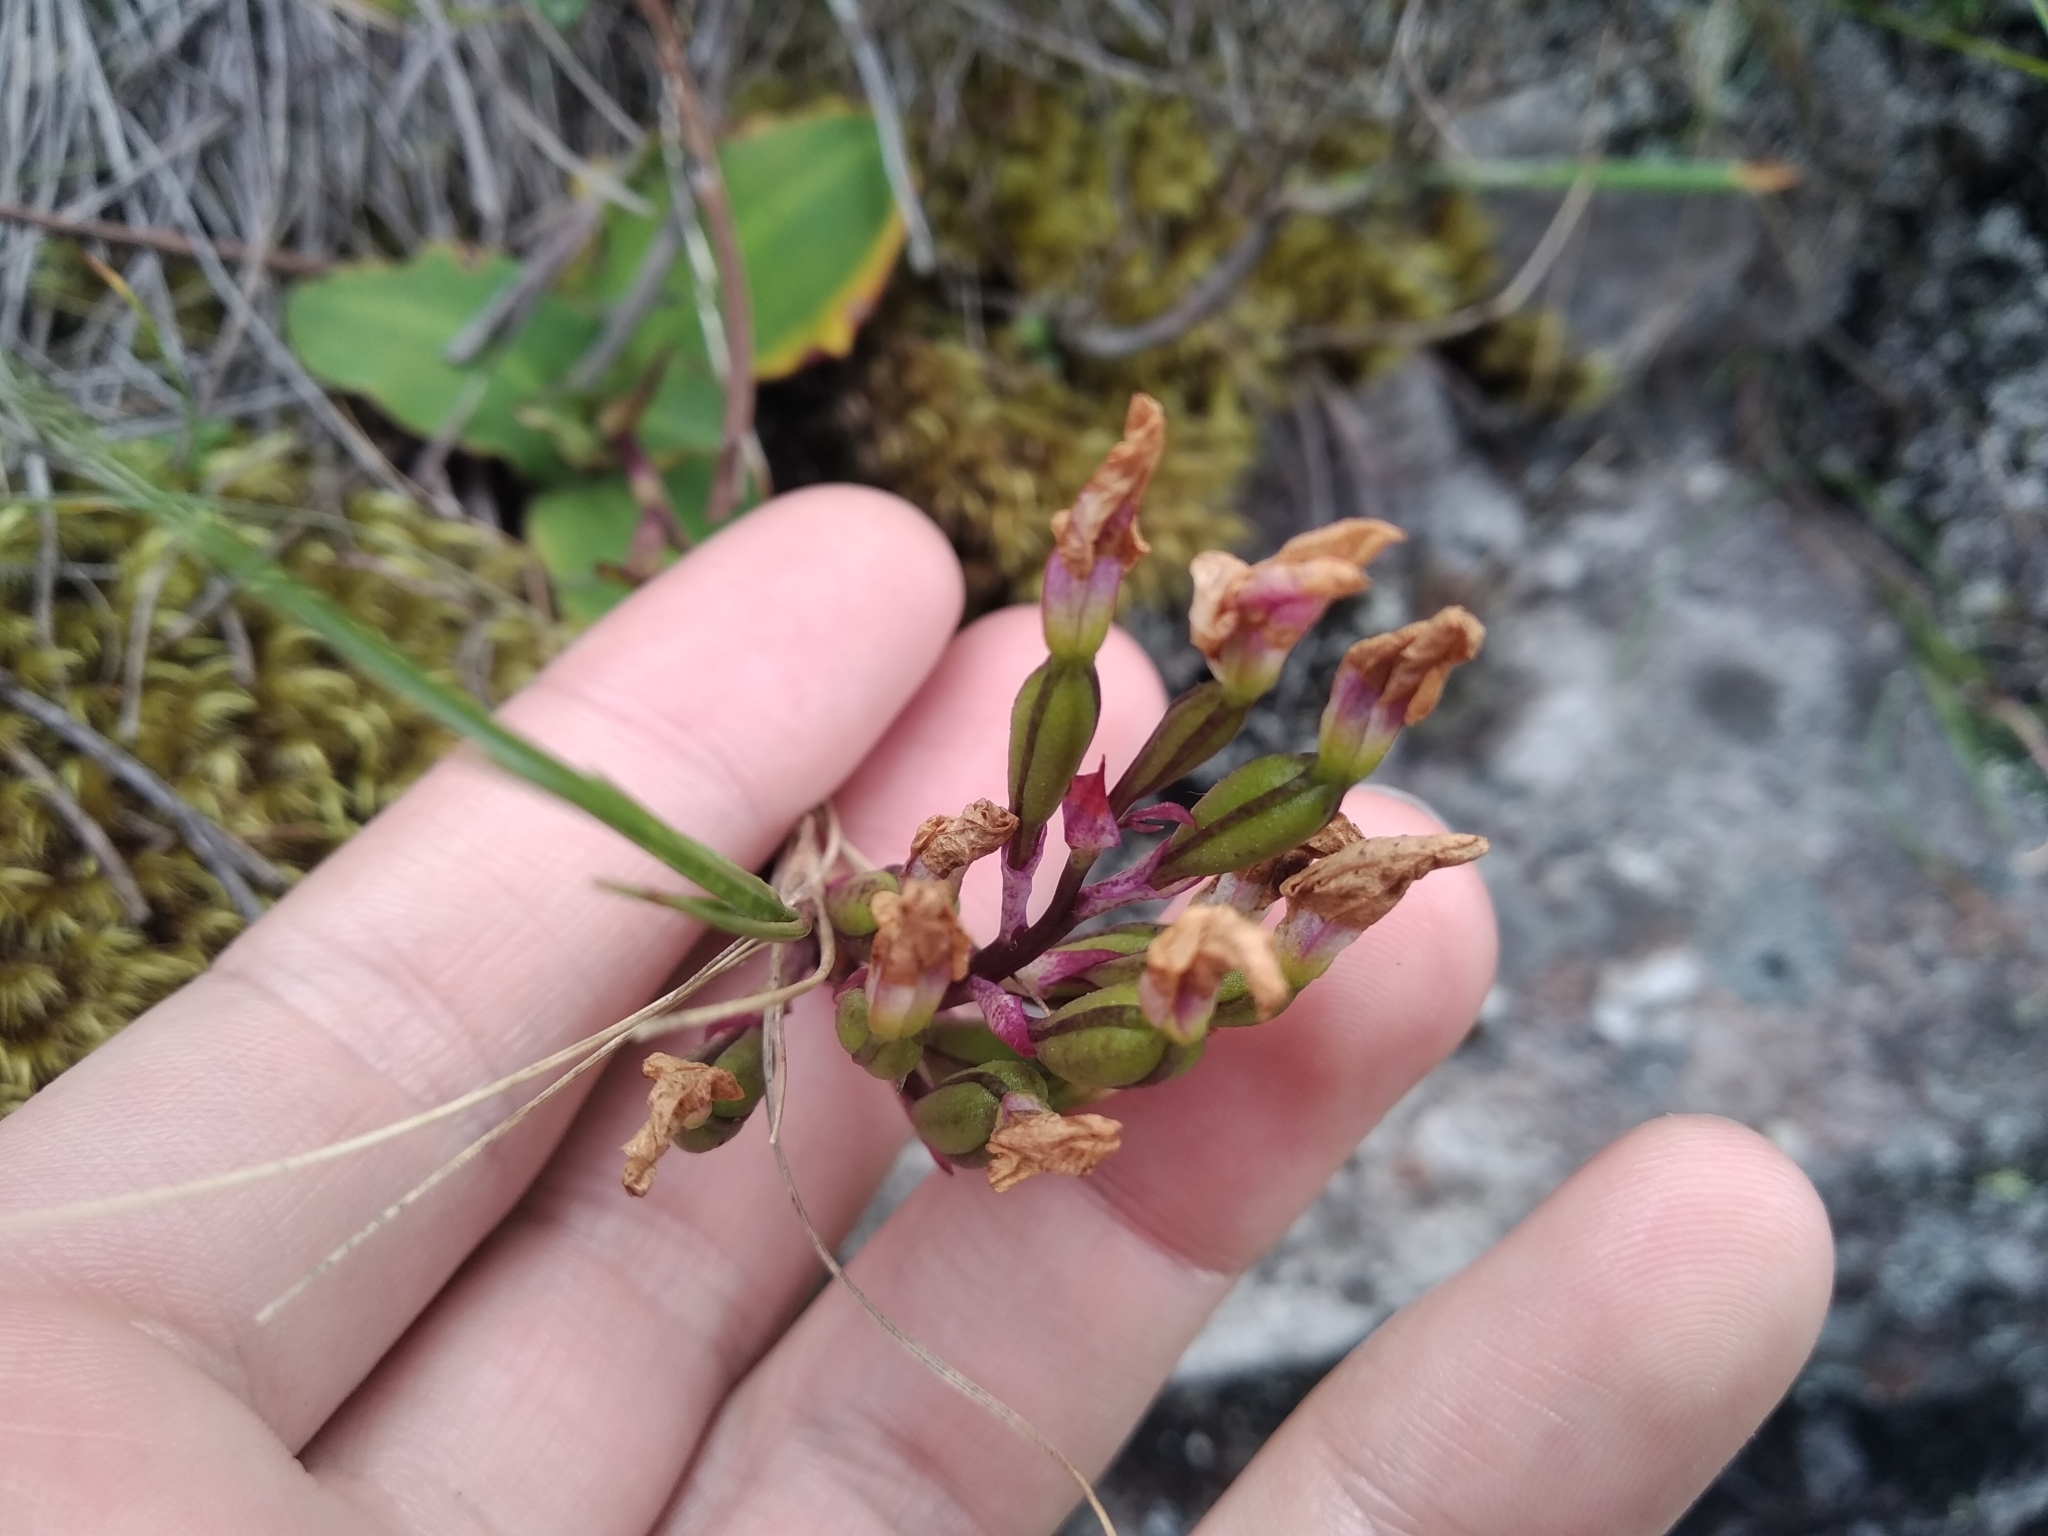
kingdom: Plantae
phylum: Tracheophyta
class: Liliopsida
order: Asparagales
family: Orchidaceae
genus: Disa
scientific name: Disa rosea
